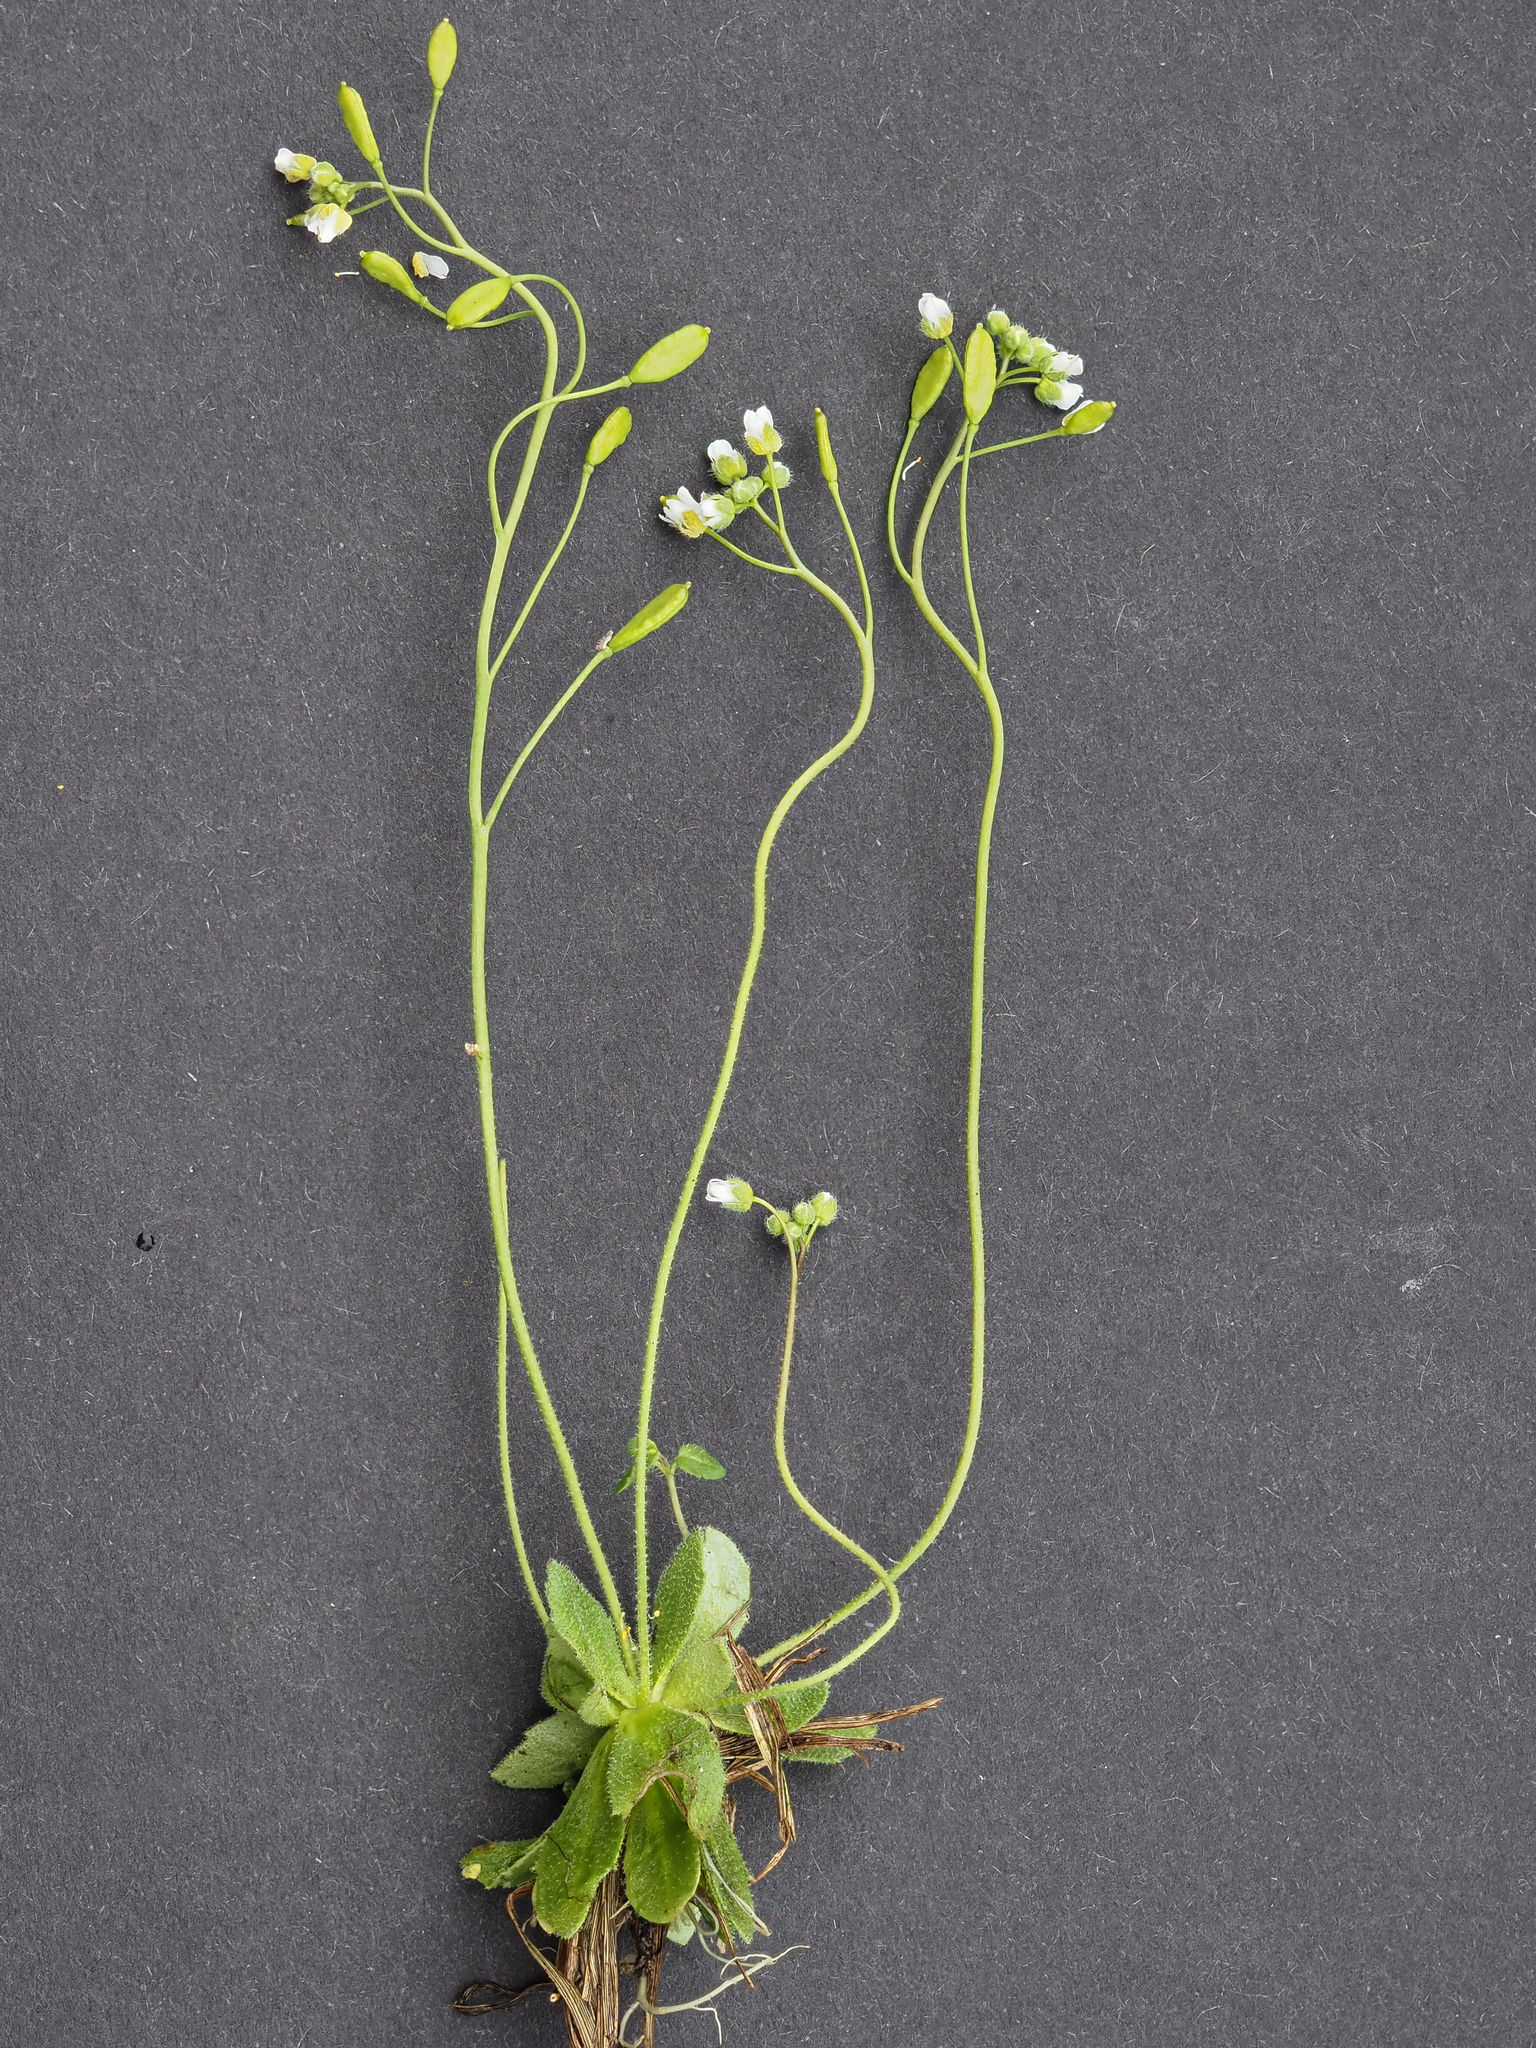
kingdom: Plantae
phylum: Tracheophyta
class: Magnoliopsida
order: Brassicales
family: Brassicaceae
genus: Draba
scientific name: Draba verna
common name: Spring draba
